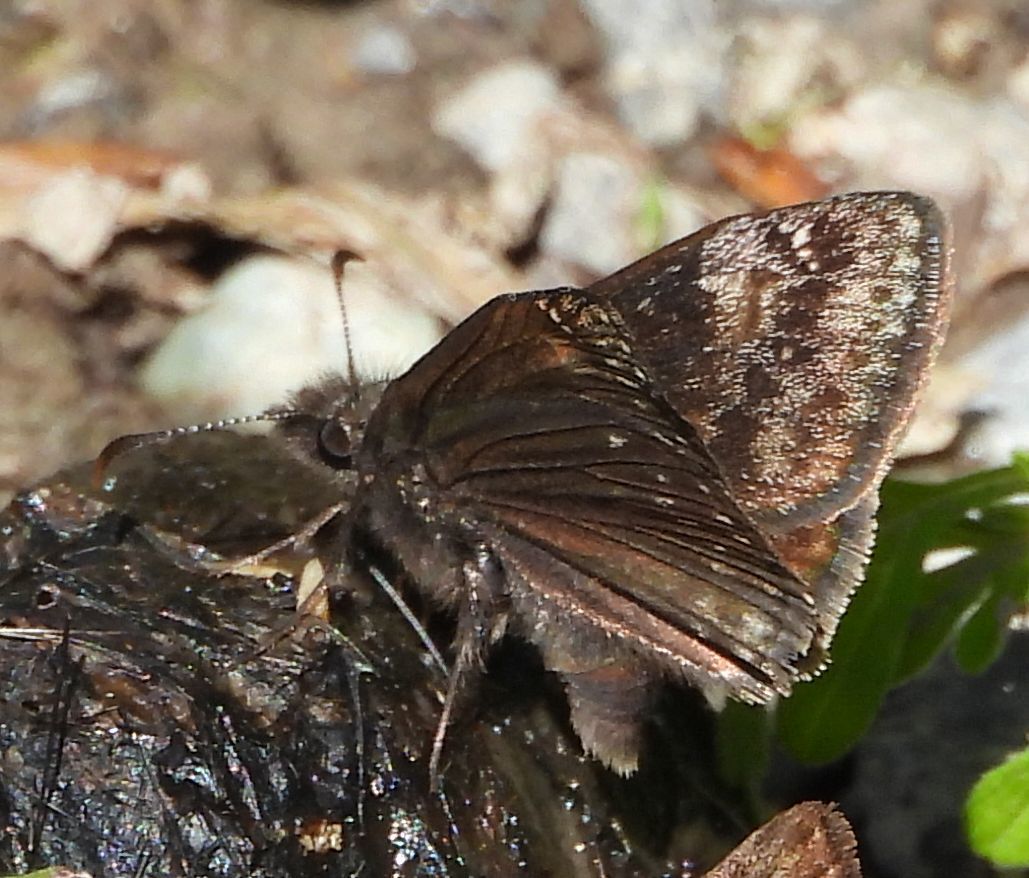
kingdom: Animalia
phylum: Arthropoda
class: Insecta
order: Lepidoptera
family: Hesperiidae
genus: Erynnis
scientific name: Erynnis lucilius
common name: Columbine duskywing
